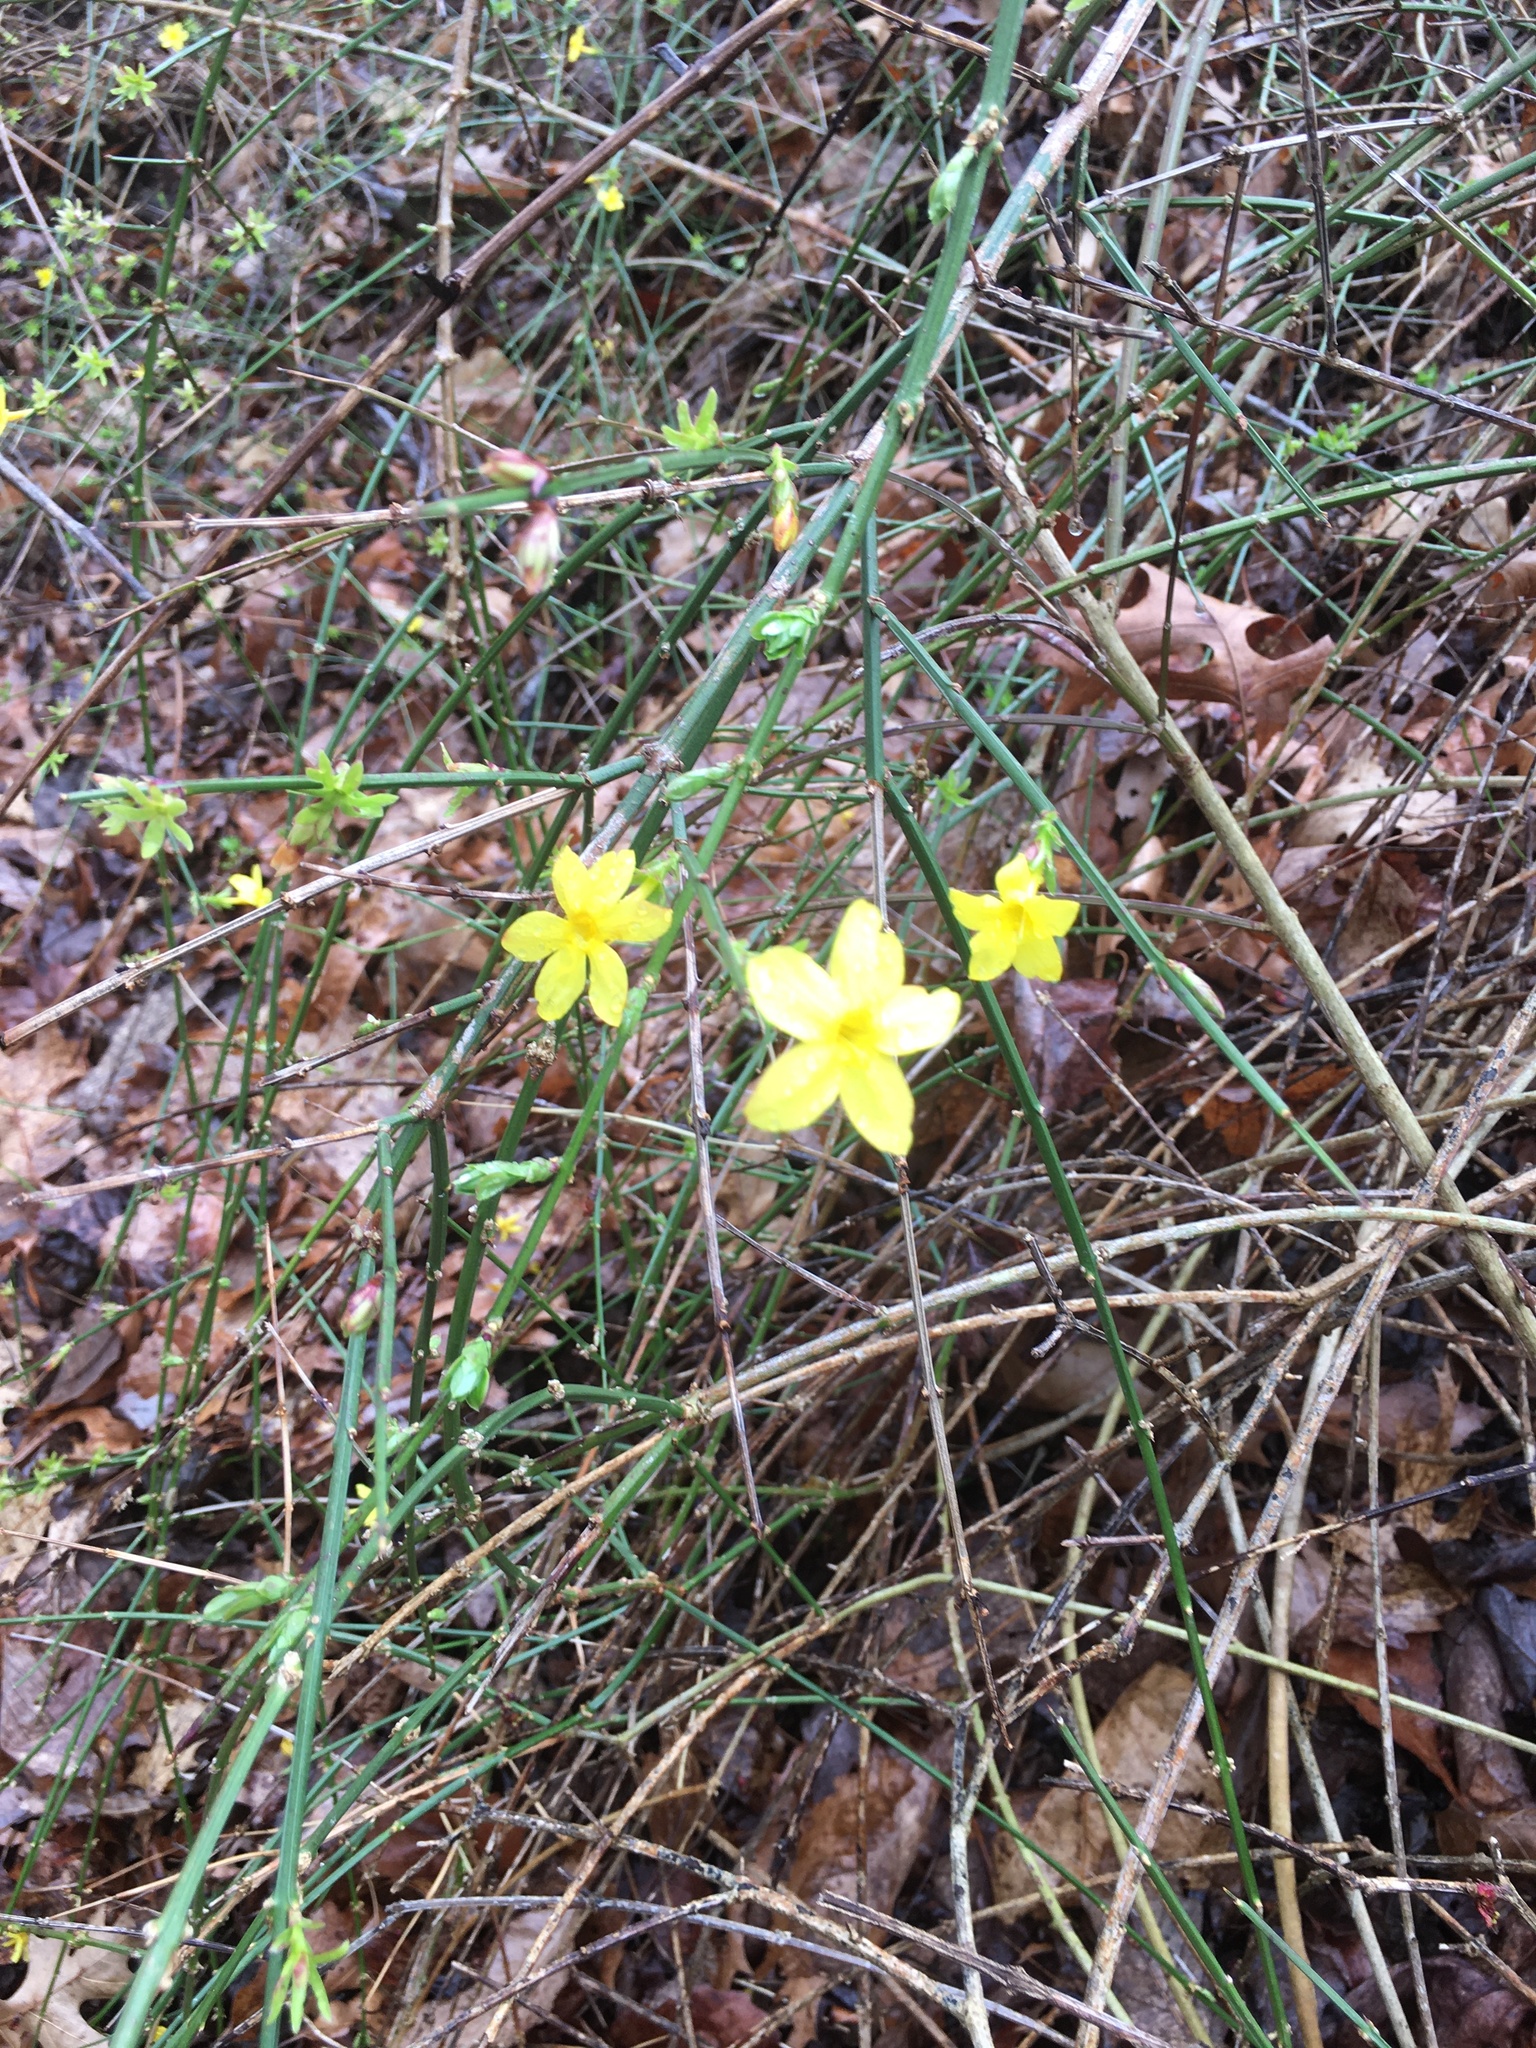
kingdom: Plantae
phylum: Tracheophyta
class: Magnoliopsida
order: Lamiales
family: Oleaceae
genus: Jasminum
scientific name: Jasminum nudiflorum
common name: Winter jasmine
